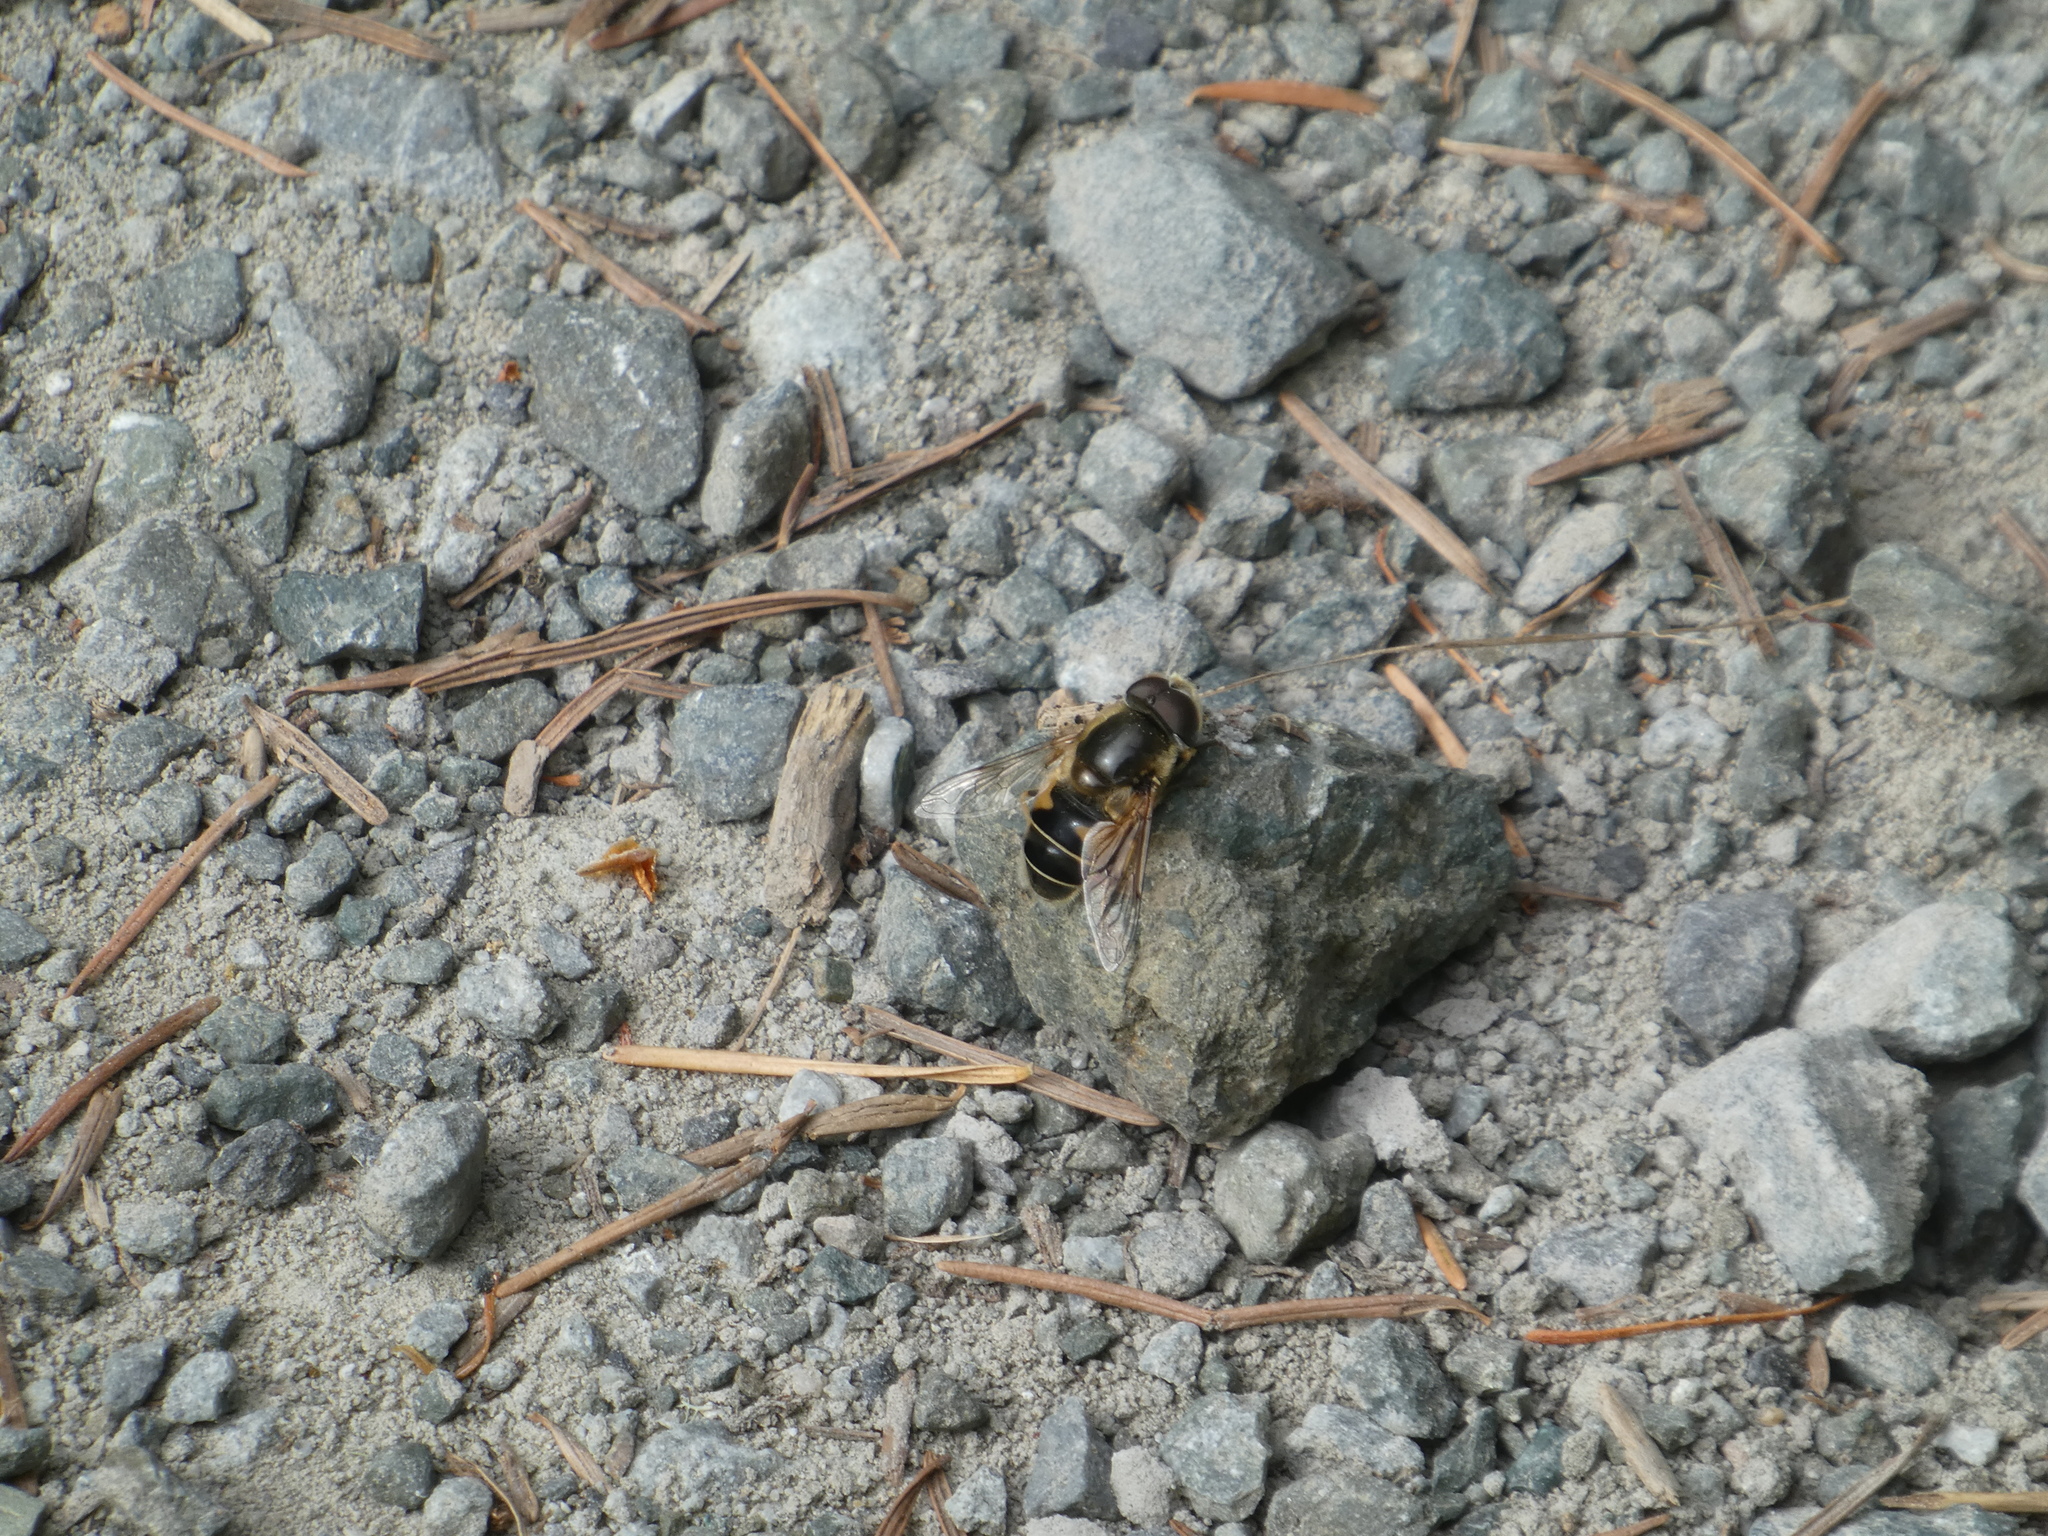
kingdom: Animalia
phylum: Arthropoda
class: Insecta
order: Diptera
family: Syrphidae
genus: Eristalis
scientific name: Eristalis hirta
